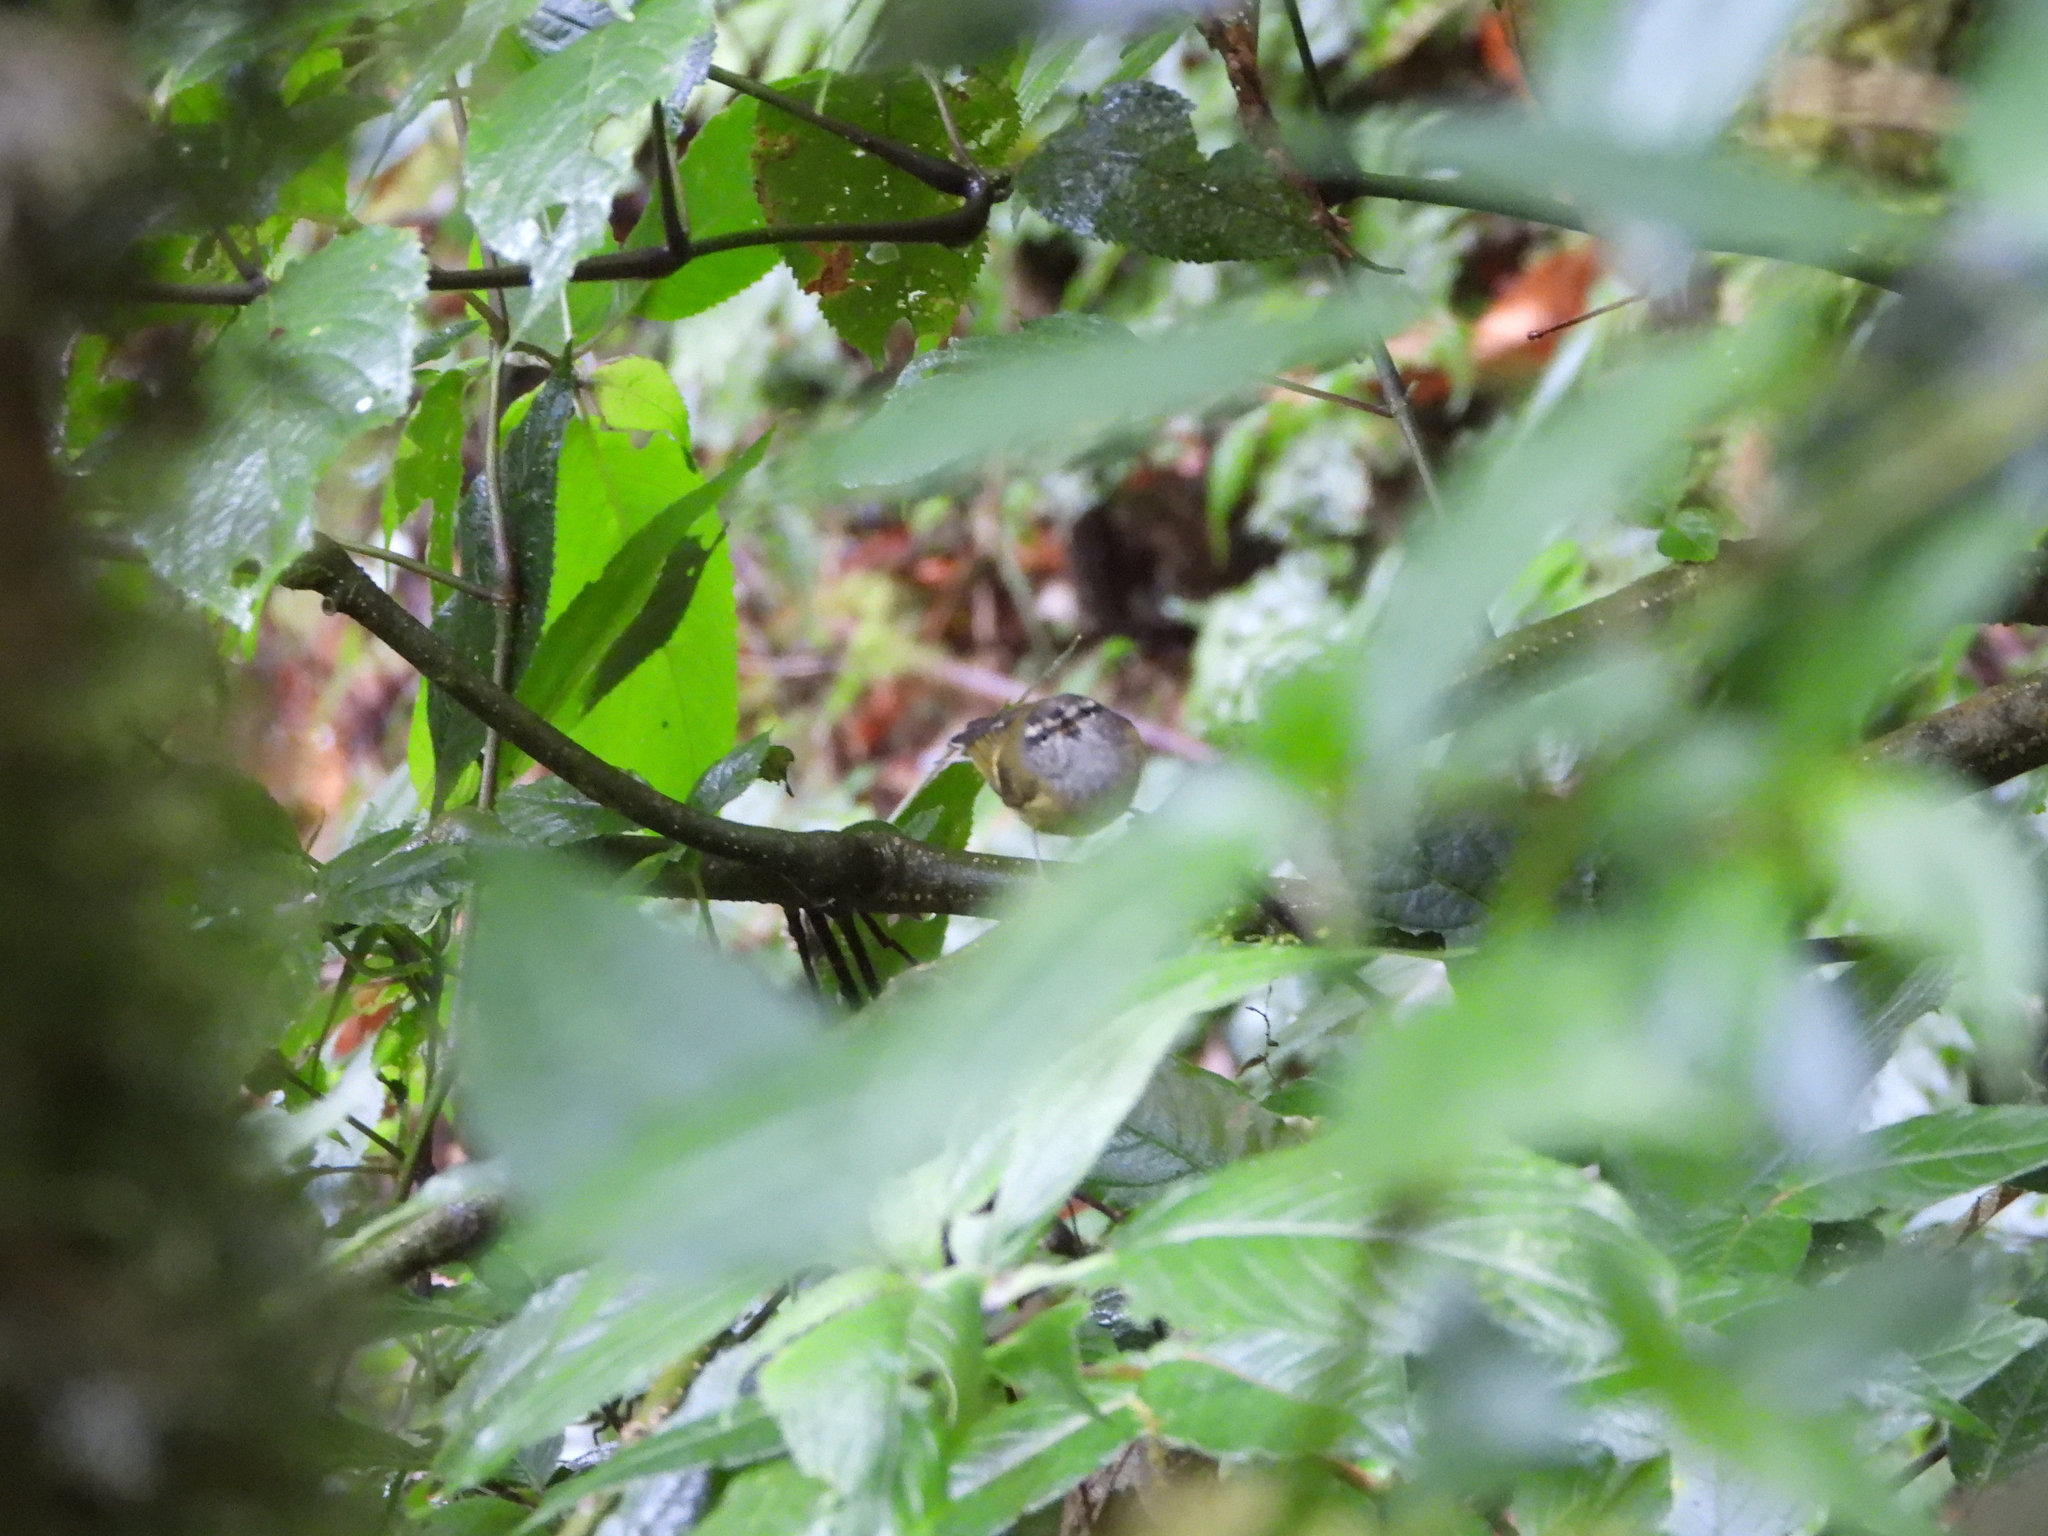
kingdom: Animalia
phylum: Chordata
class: Aves
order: Passeriformes
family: Phylloscopidae
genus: Phylloscopus
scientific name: Phylloscopus maculipennis
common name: Ashy-throated warbler
